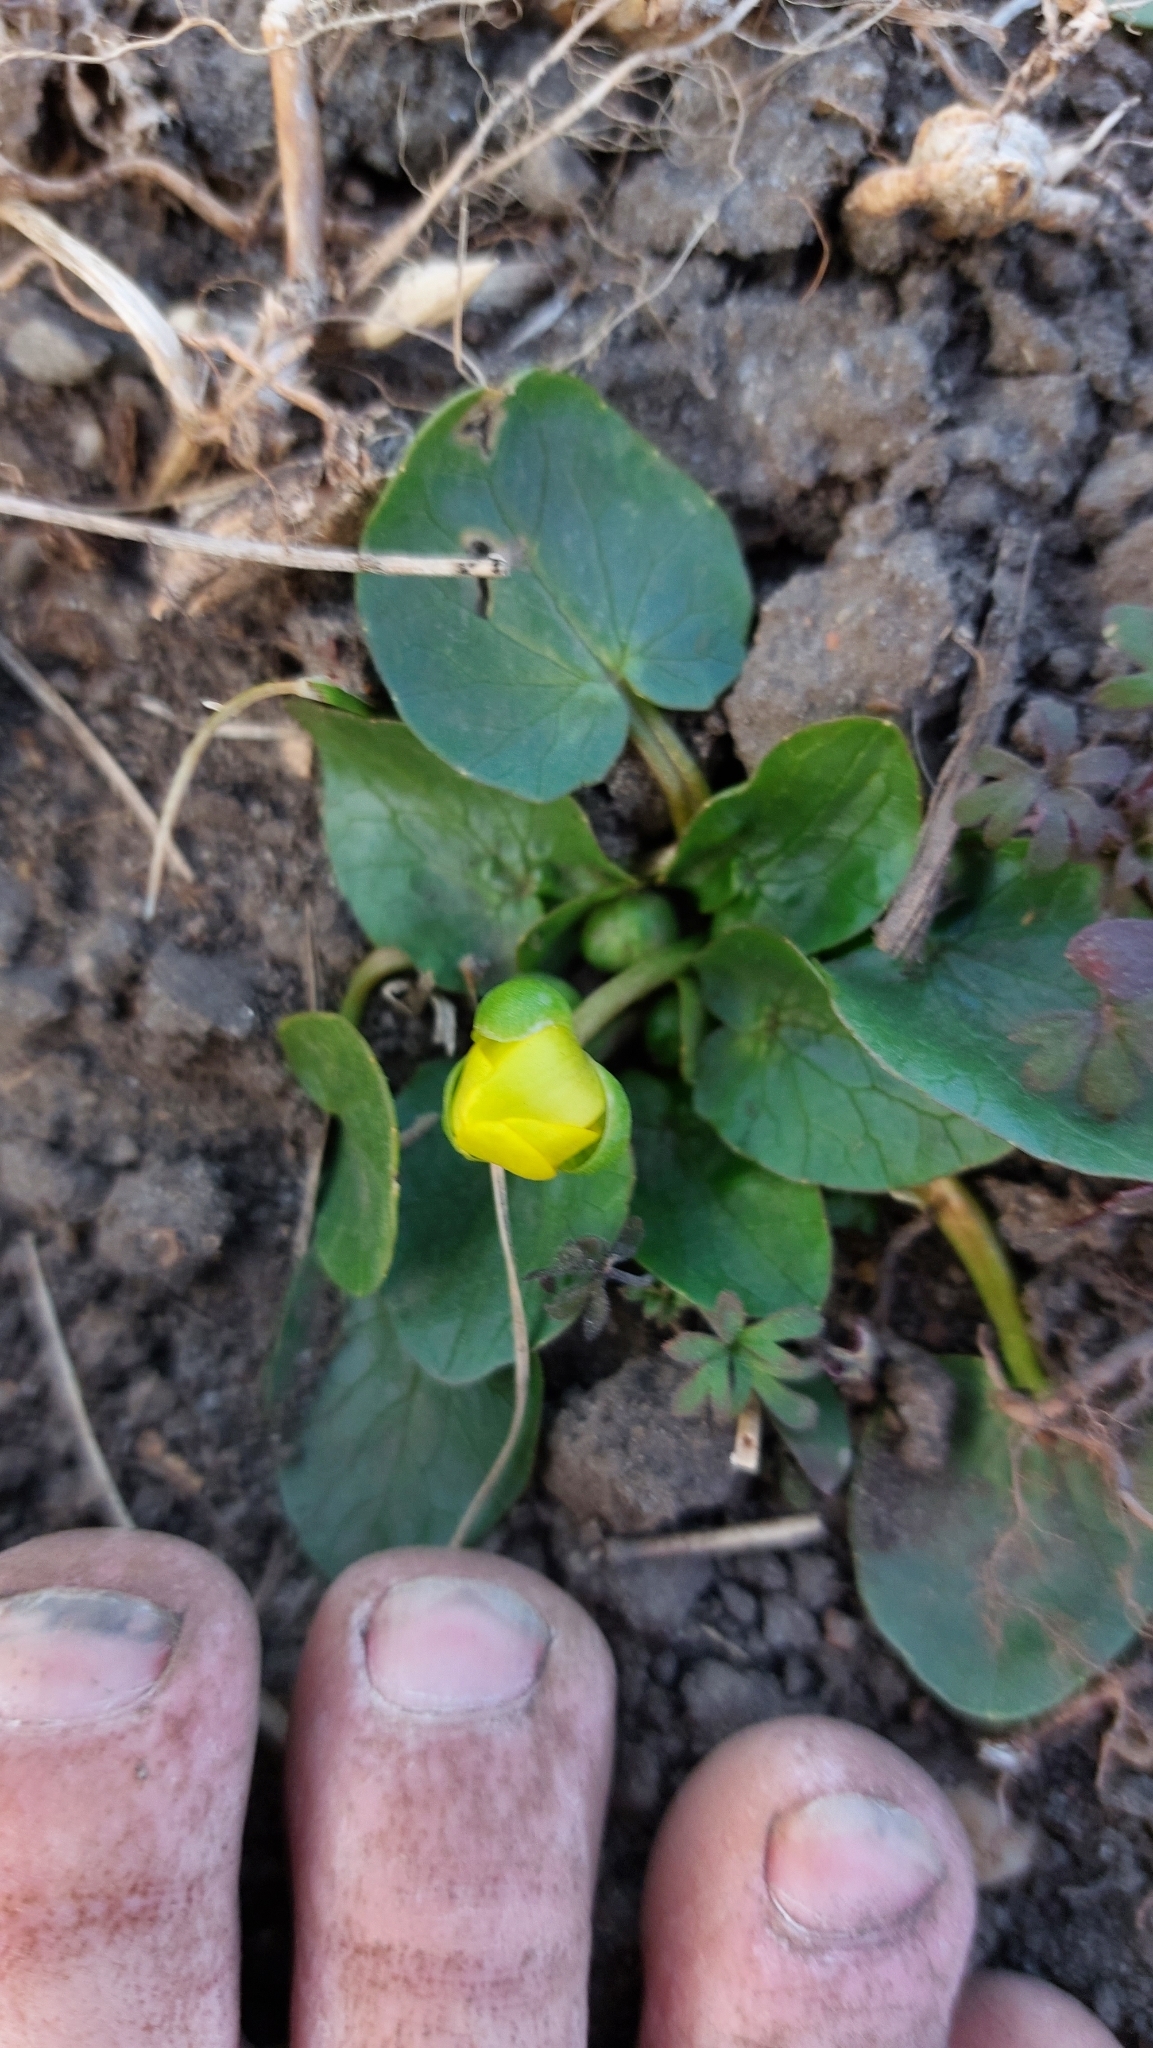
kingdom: Plantae
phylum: Tracheophyta
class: Magnoliopsida
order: Ranunculales
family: Ranunculaceae
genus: Ficaria
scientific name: Ficaria verna
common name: Lesser celandine
